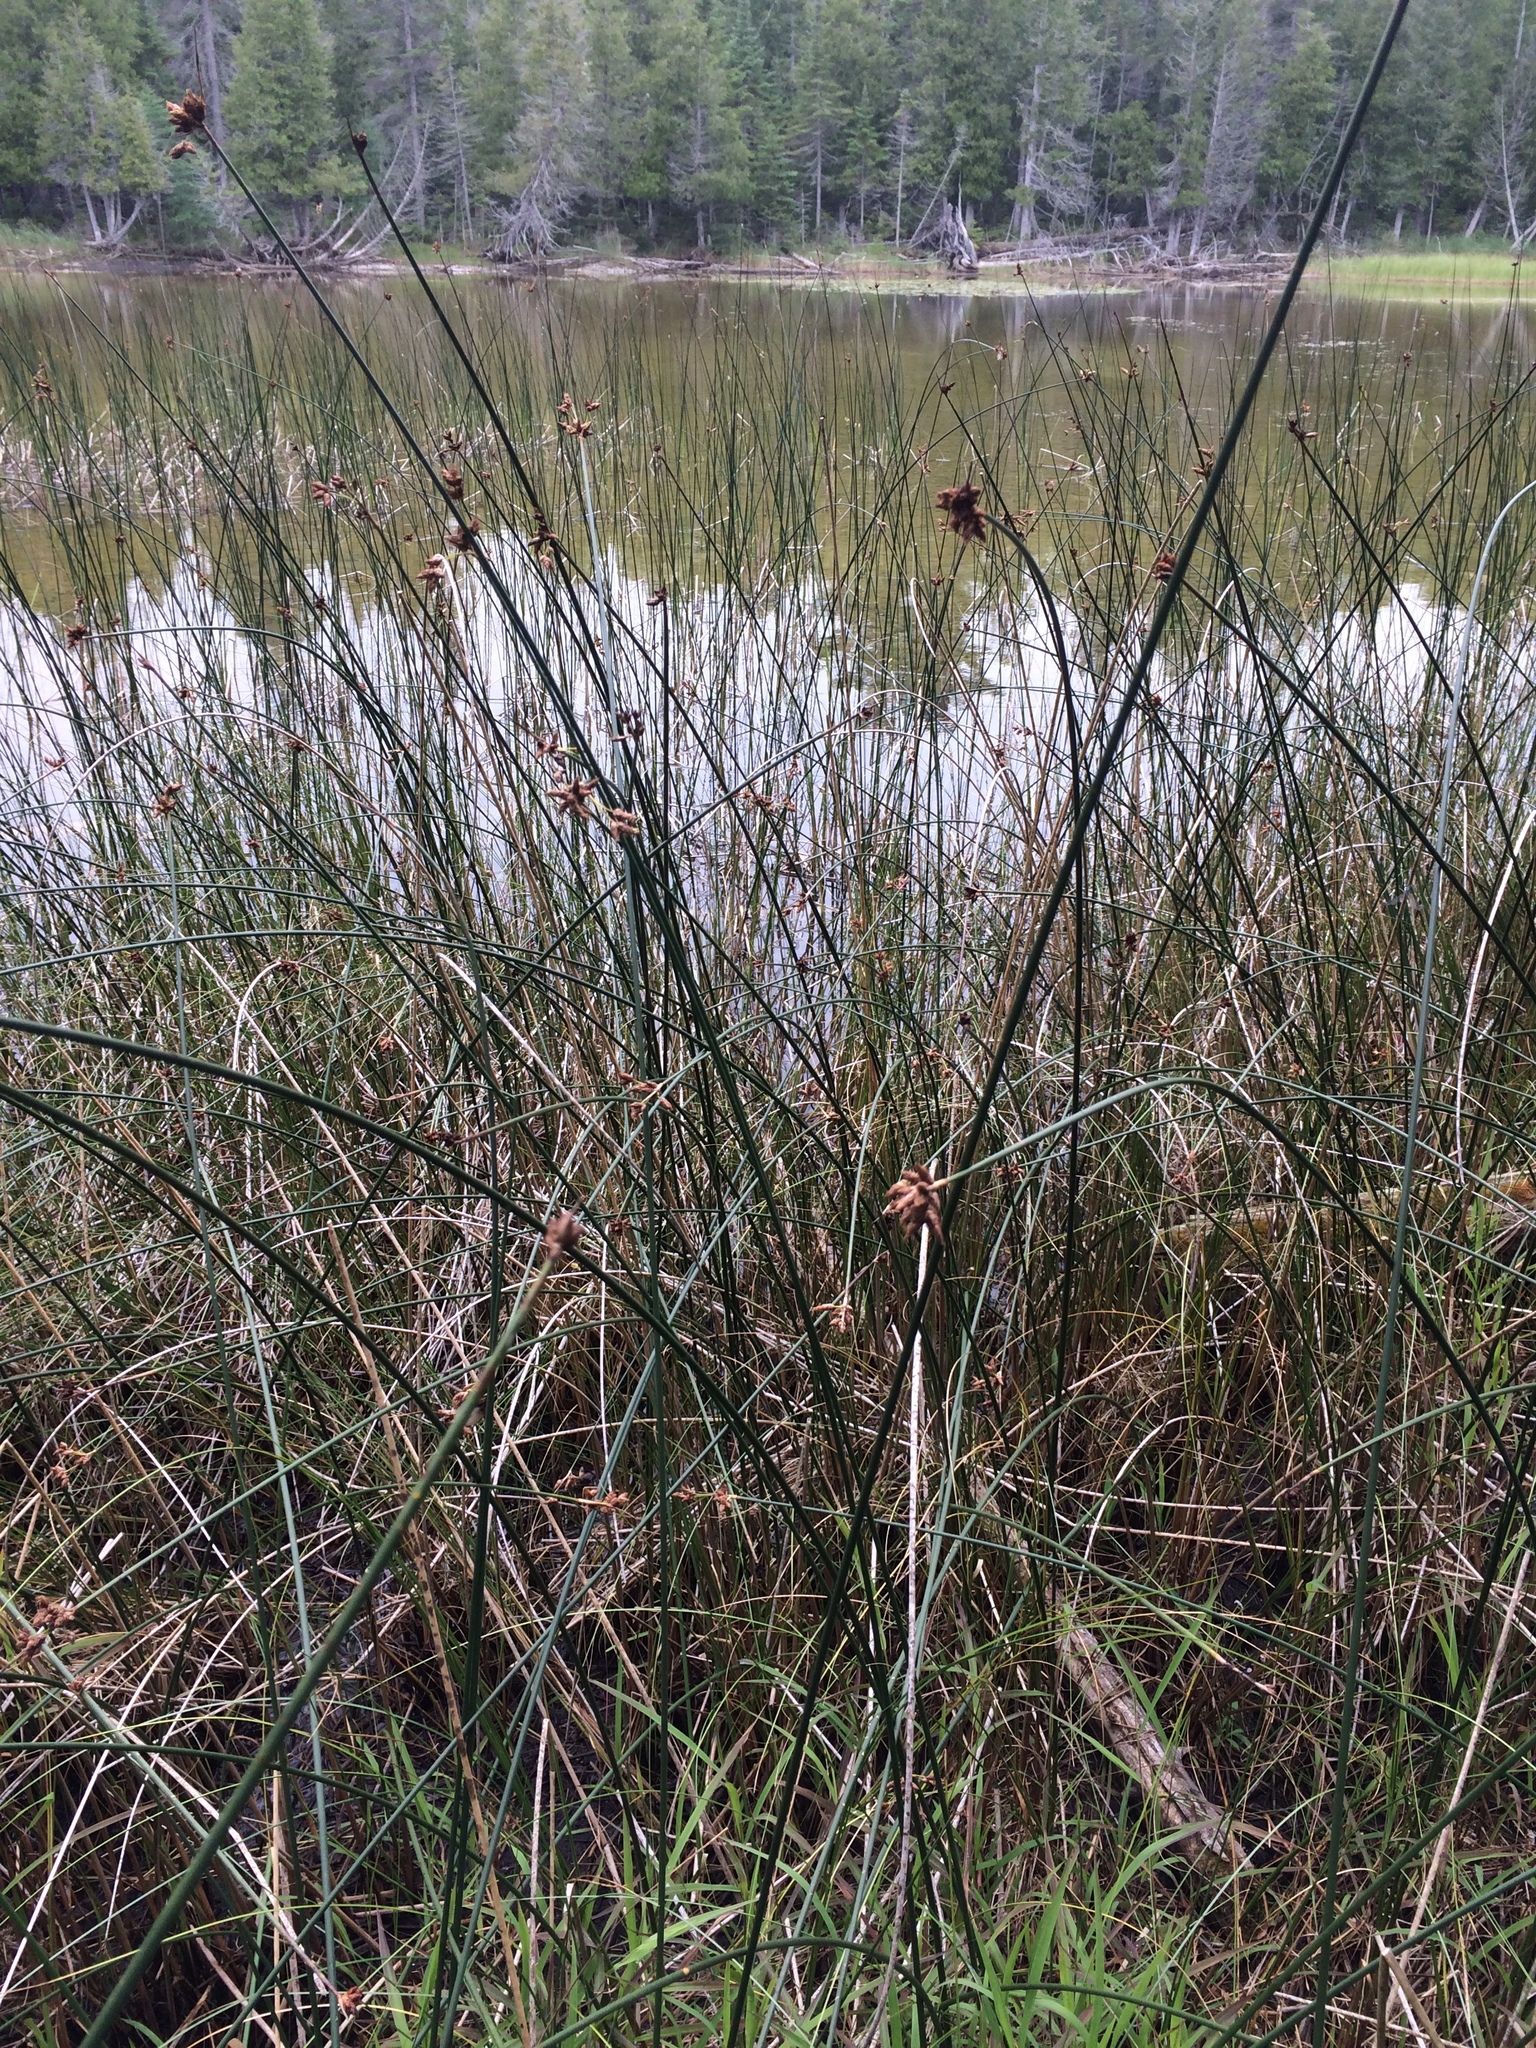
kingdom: Plantae
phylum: Tracheophyta
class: Liliopsida
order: Poales
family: Cyperaceae
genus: Schoenoplectus
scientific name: Schoenoplectus acutus
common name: Hardstem bulrush
